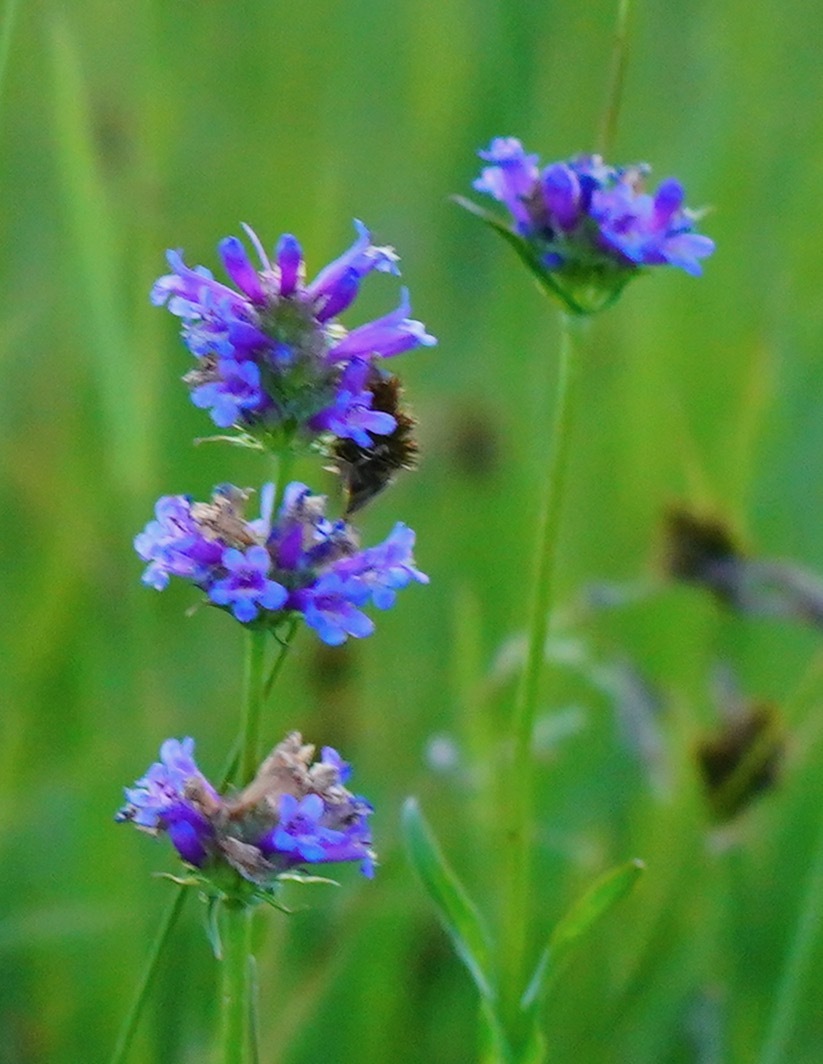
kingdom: Plantae
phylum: Tracheophyta
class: Magnoliopsida
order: Lamiales
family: Plantaginaceae
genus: Penstemon
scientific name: Penstemon rydbergii
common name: Rydberg's beardtongue
